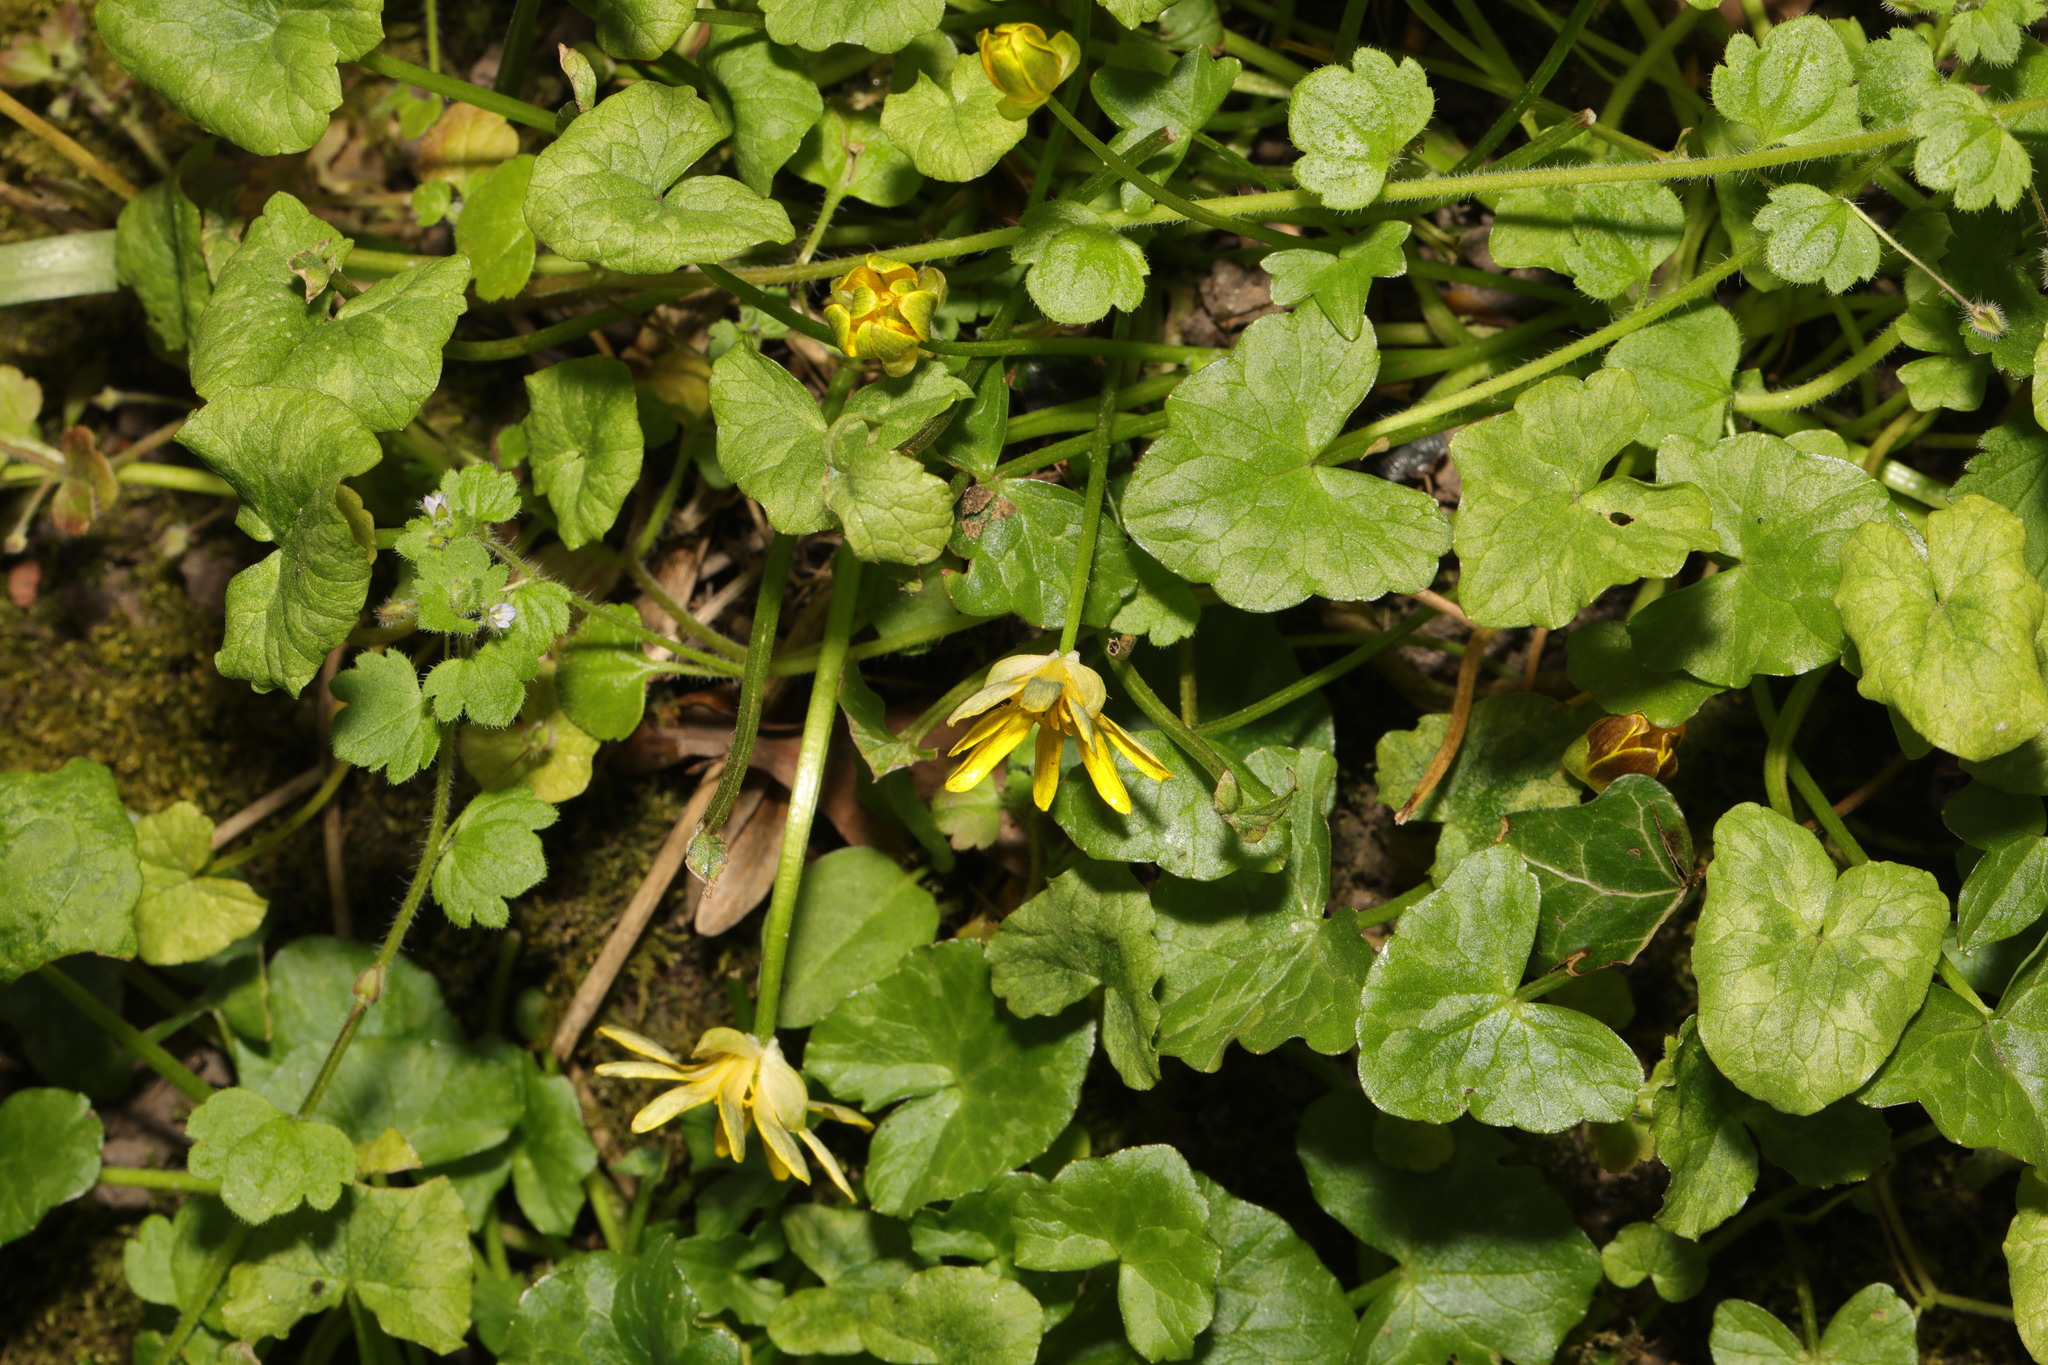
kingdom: Plantae
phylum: Tracheophyta
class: Magnoliopsida
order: Ranunculales
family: Ranunculaceae
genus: Ficaria
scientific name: Ficaria verna
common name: Lesser celandine
